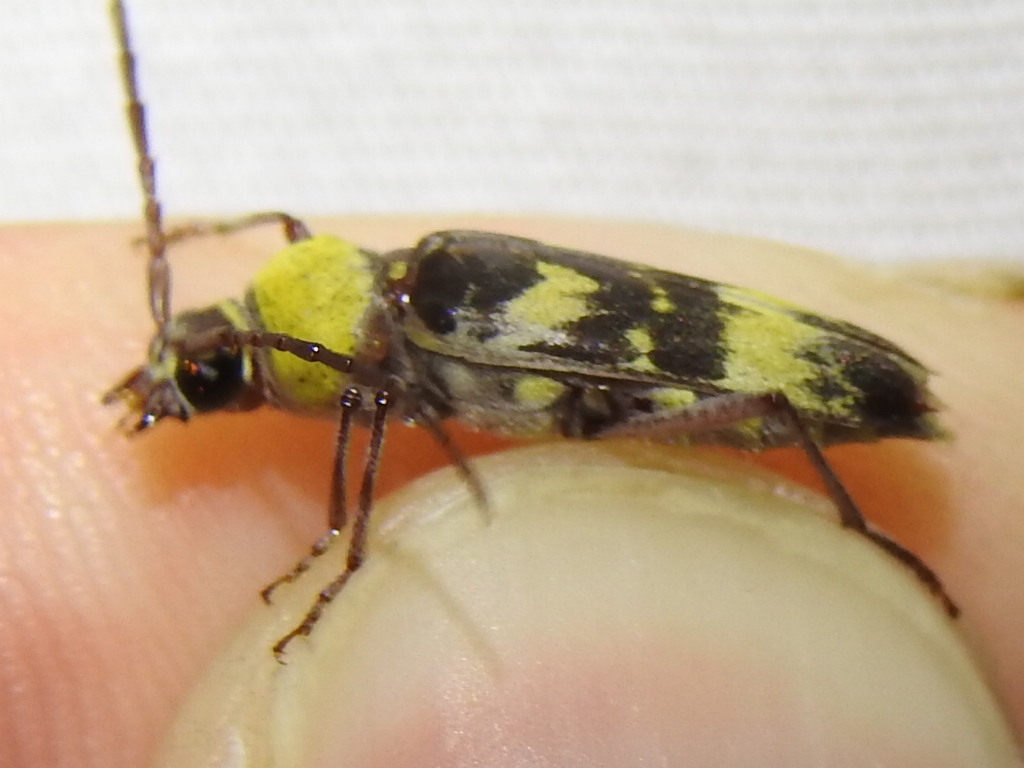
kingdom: Animalia
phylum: Arthropoda
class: Insecta
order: Coleoptera
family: Cerambycidae
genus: Megacyllene
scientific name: Megacyllene antennata
